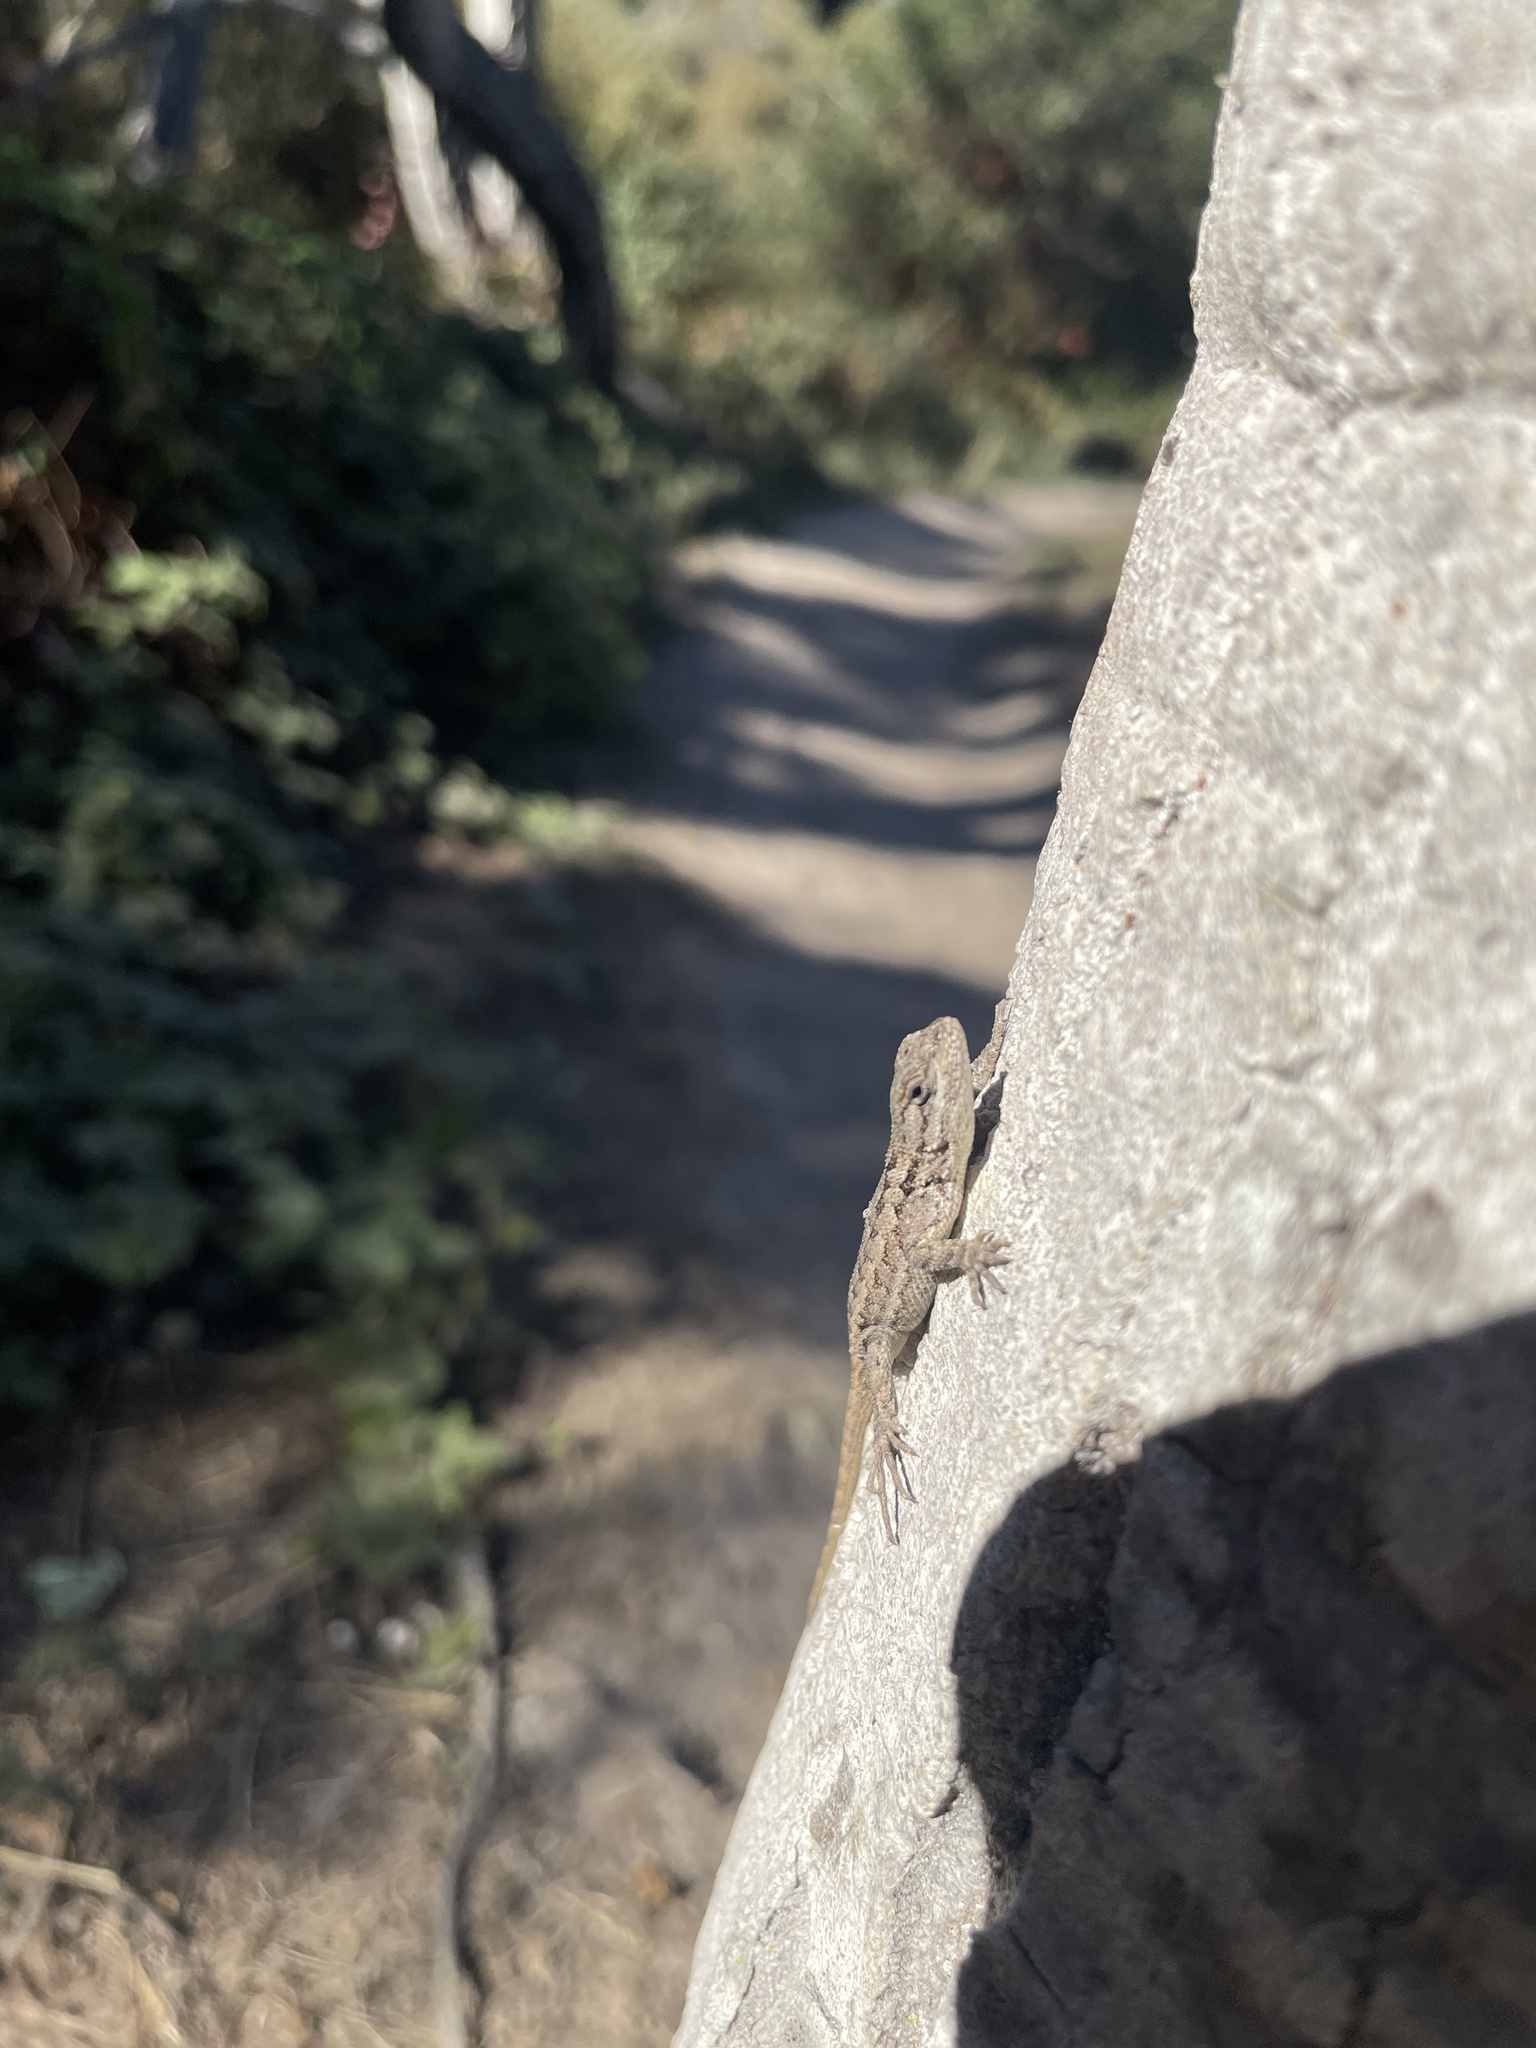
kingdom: Animalia
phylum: Chordata
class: Squamata
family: Phrynosomatidae
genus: Sceloporus
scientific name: Sceloporus occidentalis
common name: Western fence lizard
